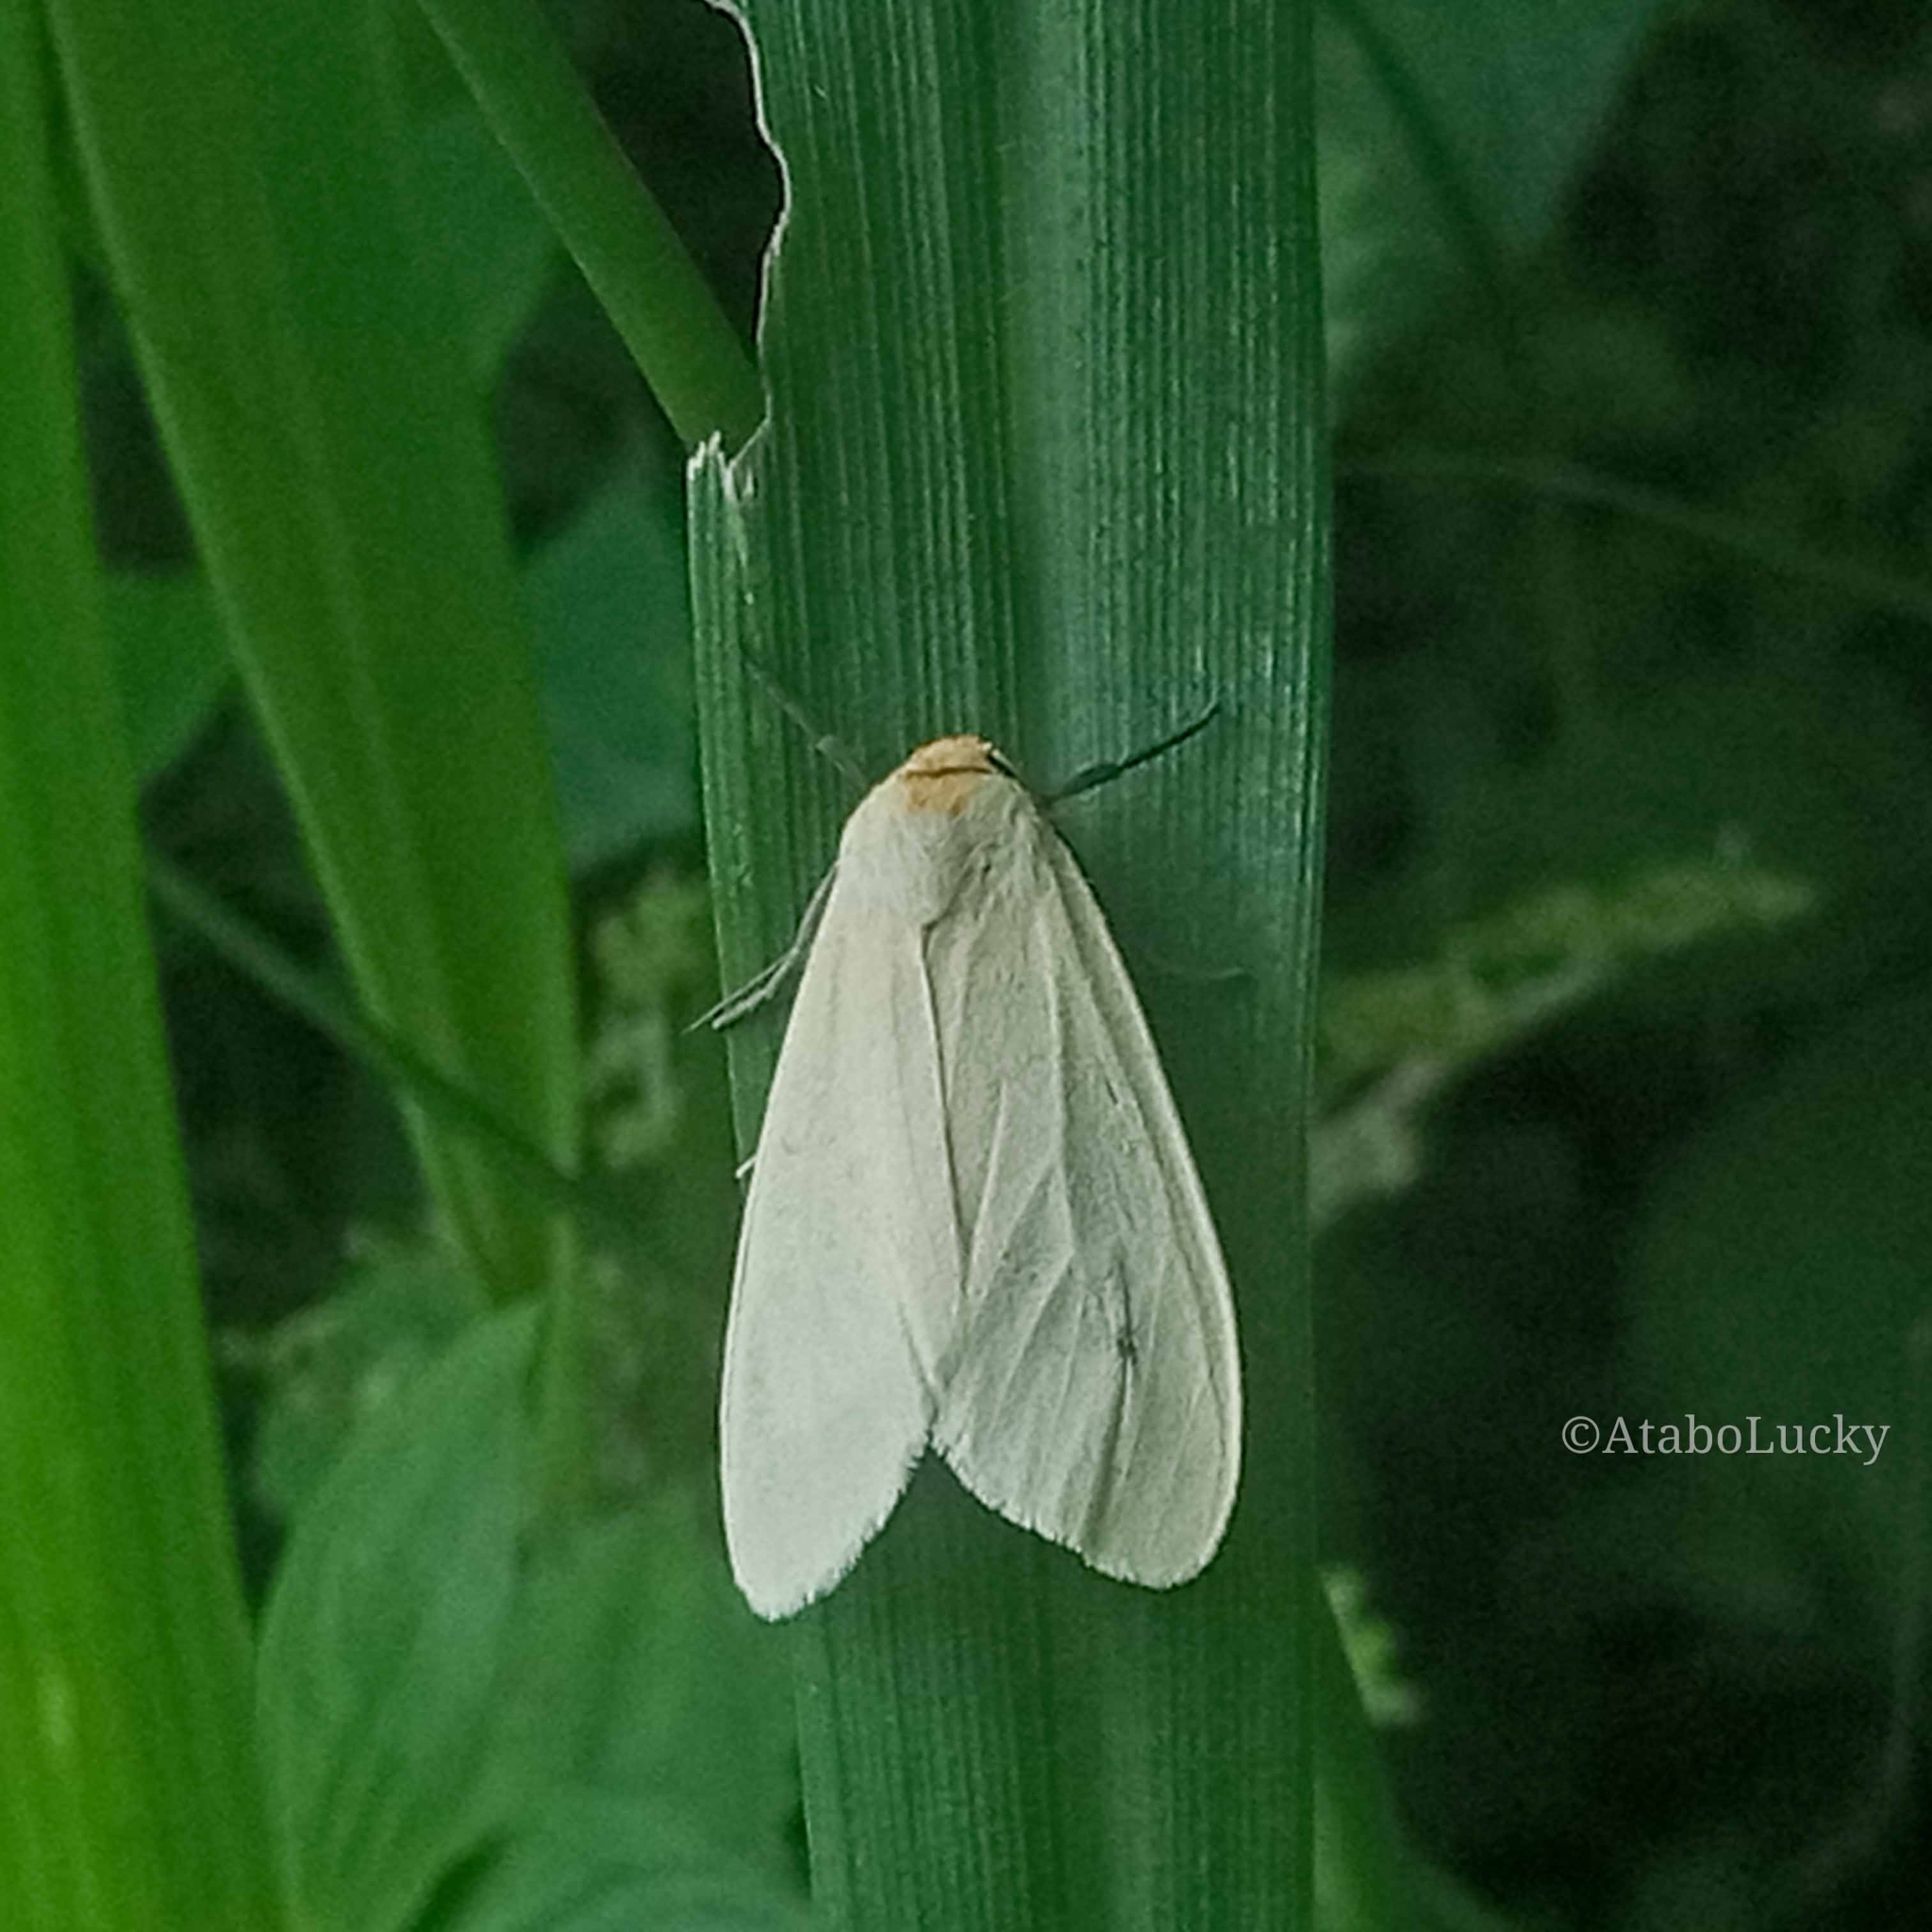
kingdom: Animalia
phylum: Arthropoda
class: Insecta
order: Lepidoptera
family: Erebidae
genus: Pareuchaetes
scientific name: Pareuchaetes pseudoinsulata
